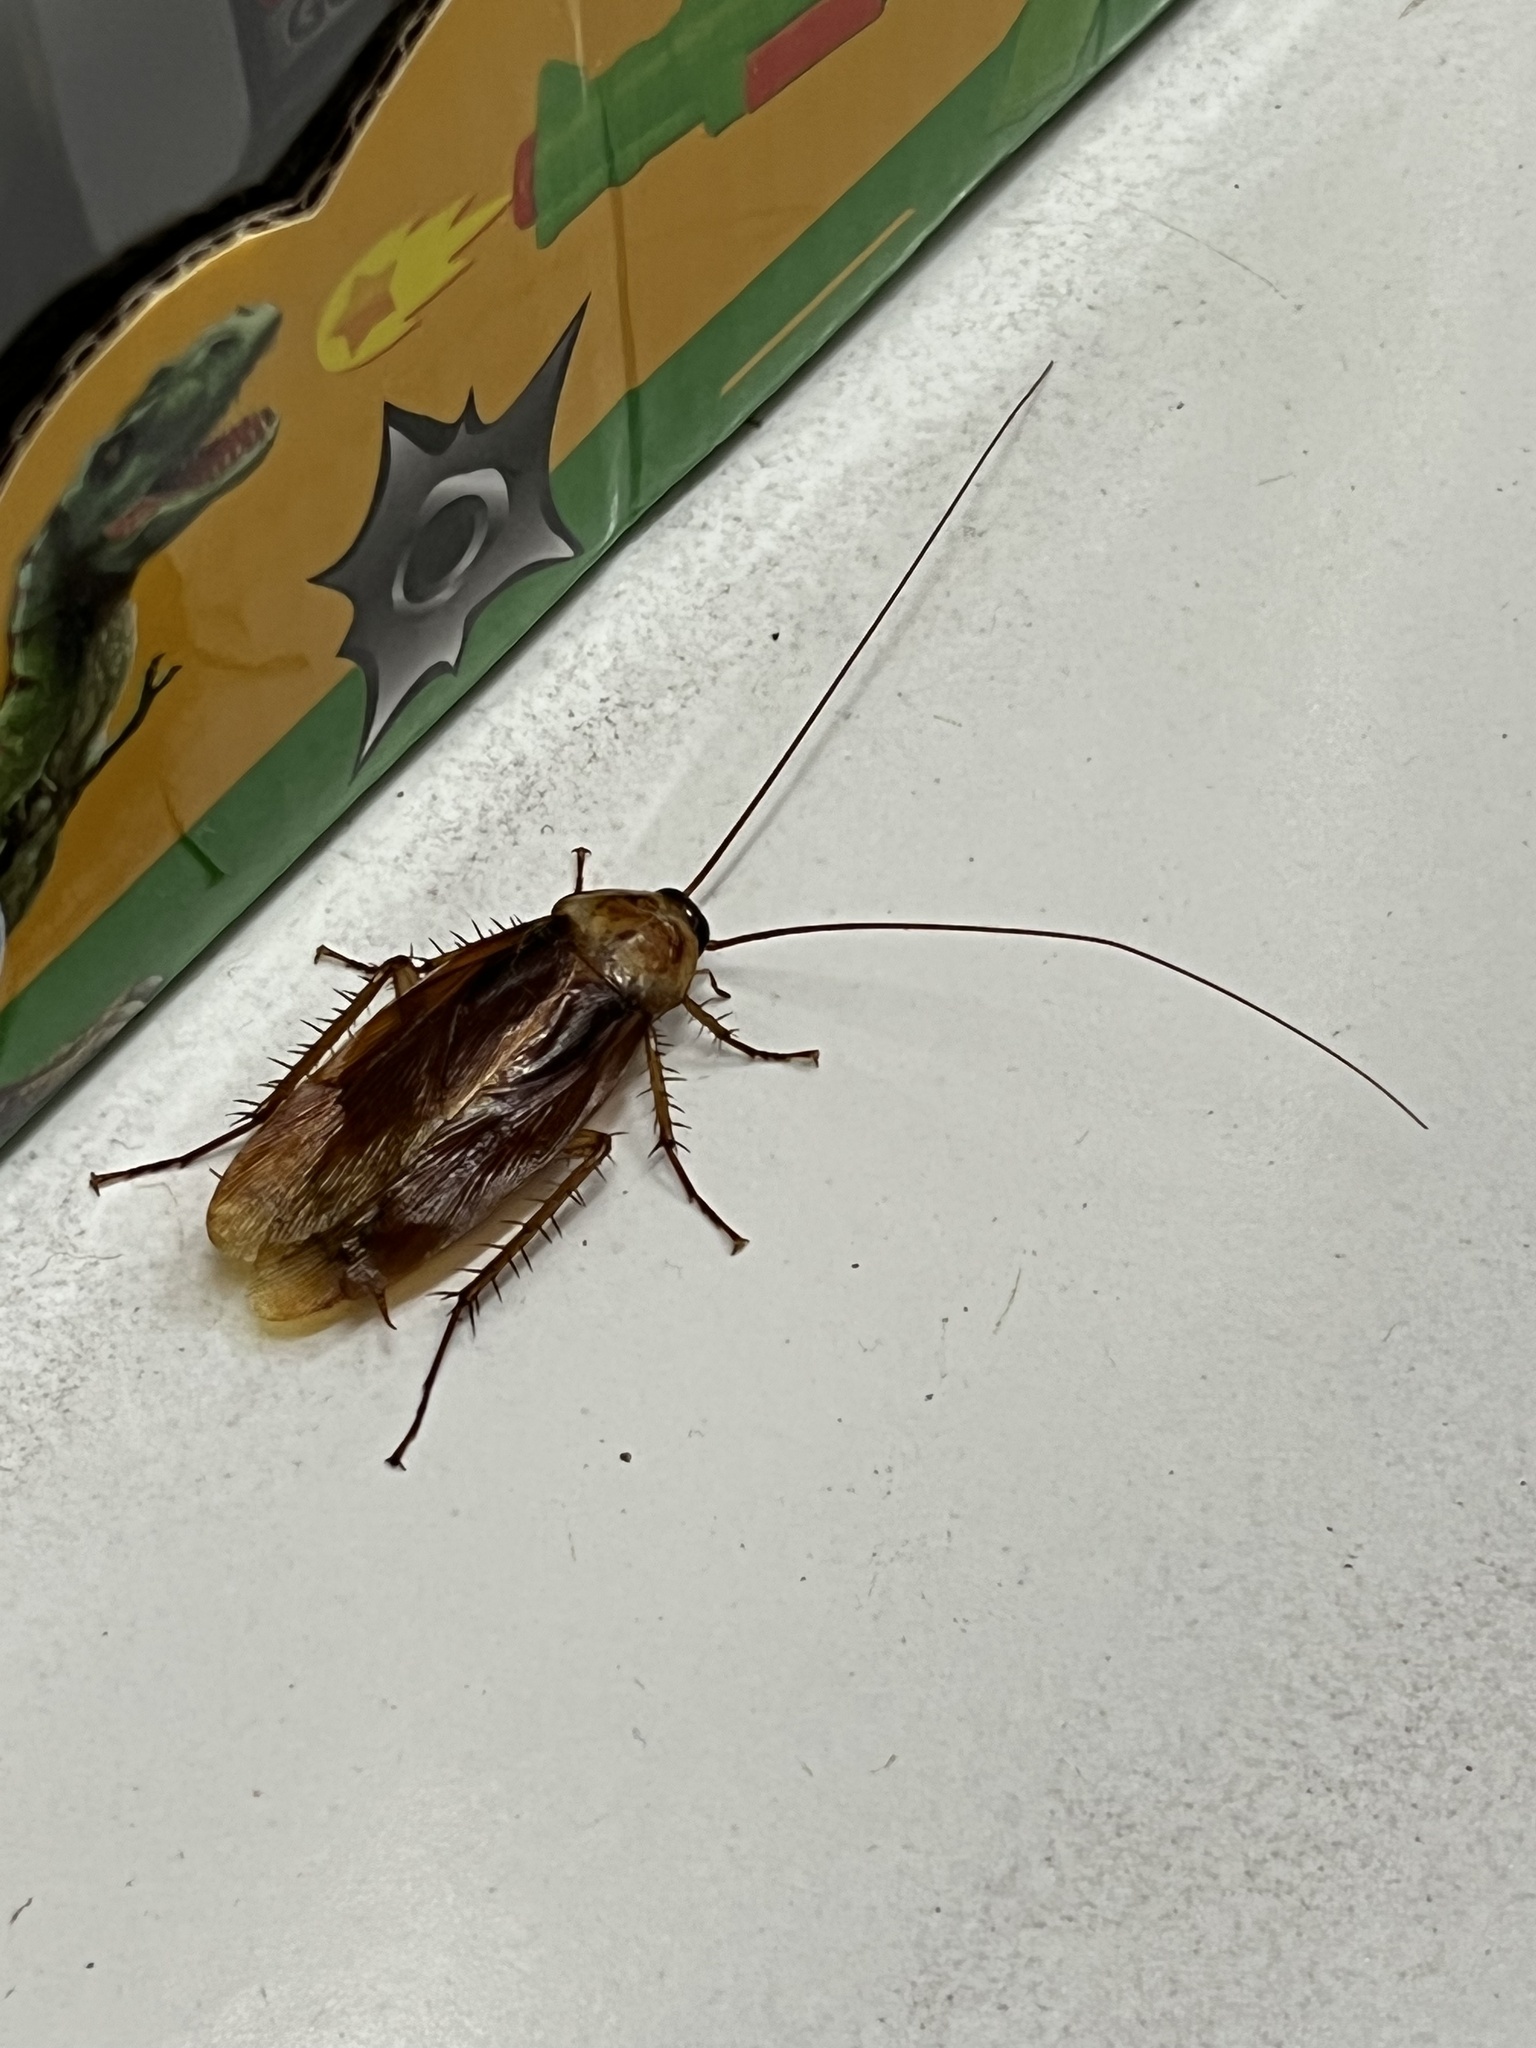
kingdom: Animalia
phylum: Arthropoda
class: Insecta
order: Blattodea
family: Blattidae
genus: Periplaneta
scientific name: Periplaneta americana
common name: American cockroach
